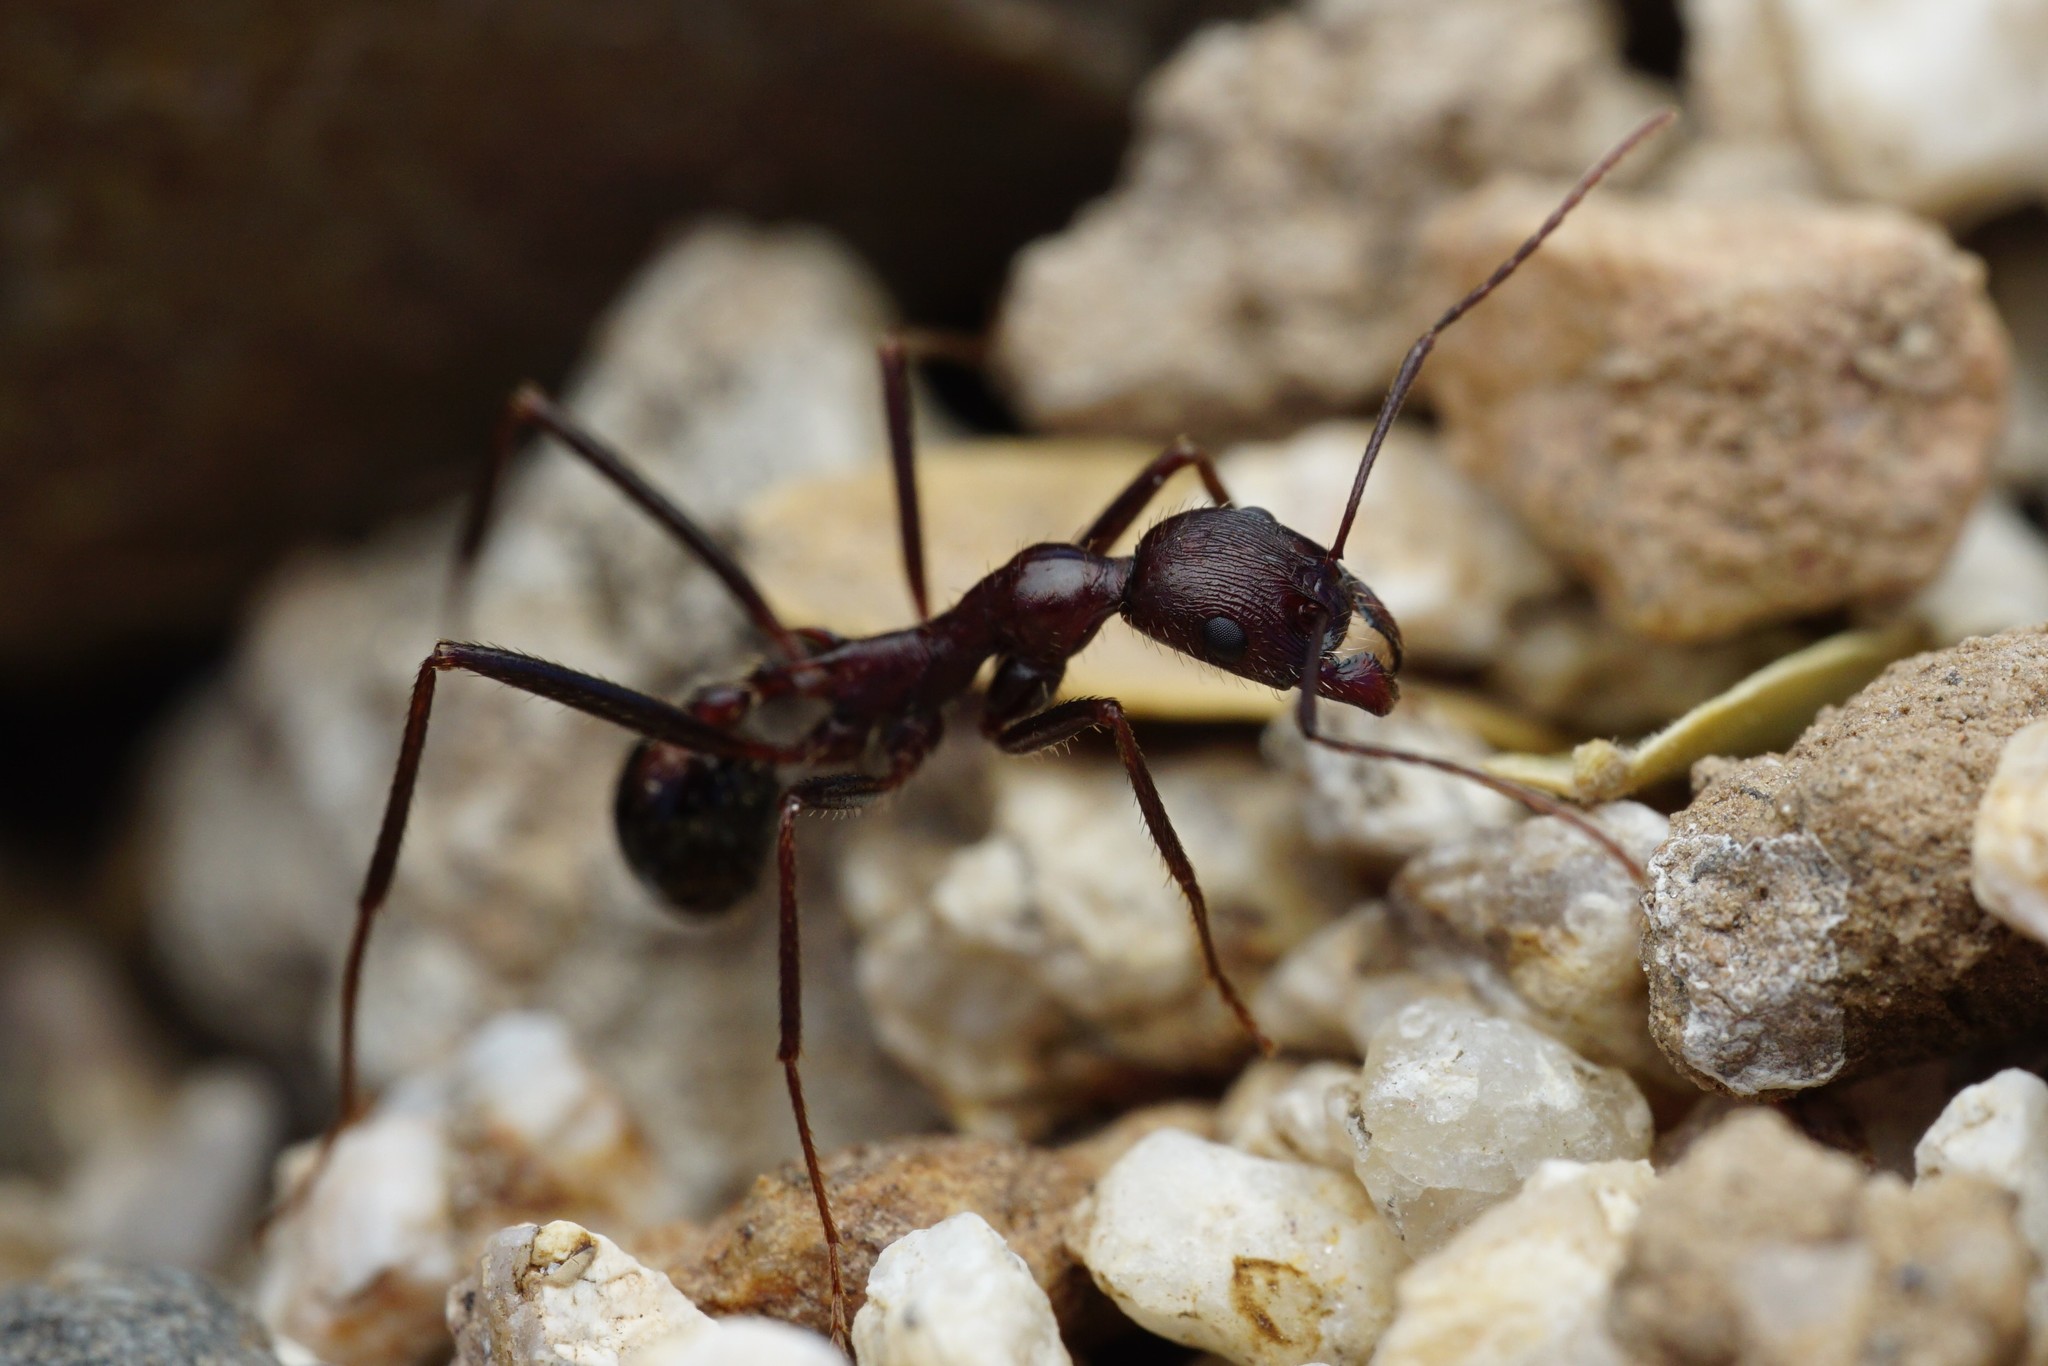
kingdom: Animalia
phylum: Arthropoda
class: Insecta
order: Hymenoptera
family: Formicidae
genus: Novomessor
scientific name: Novomessor cockerelli
